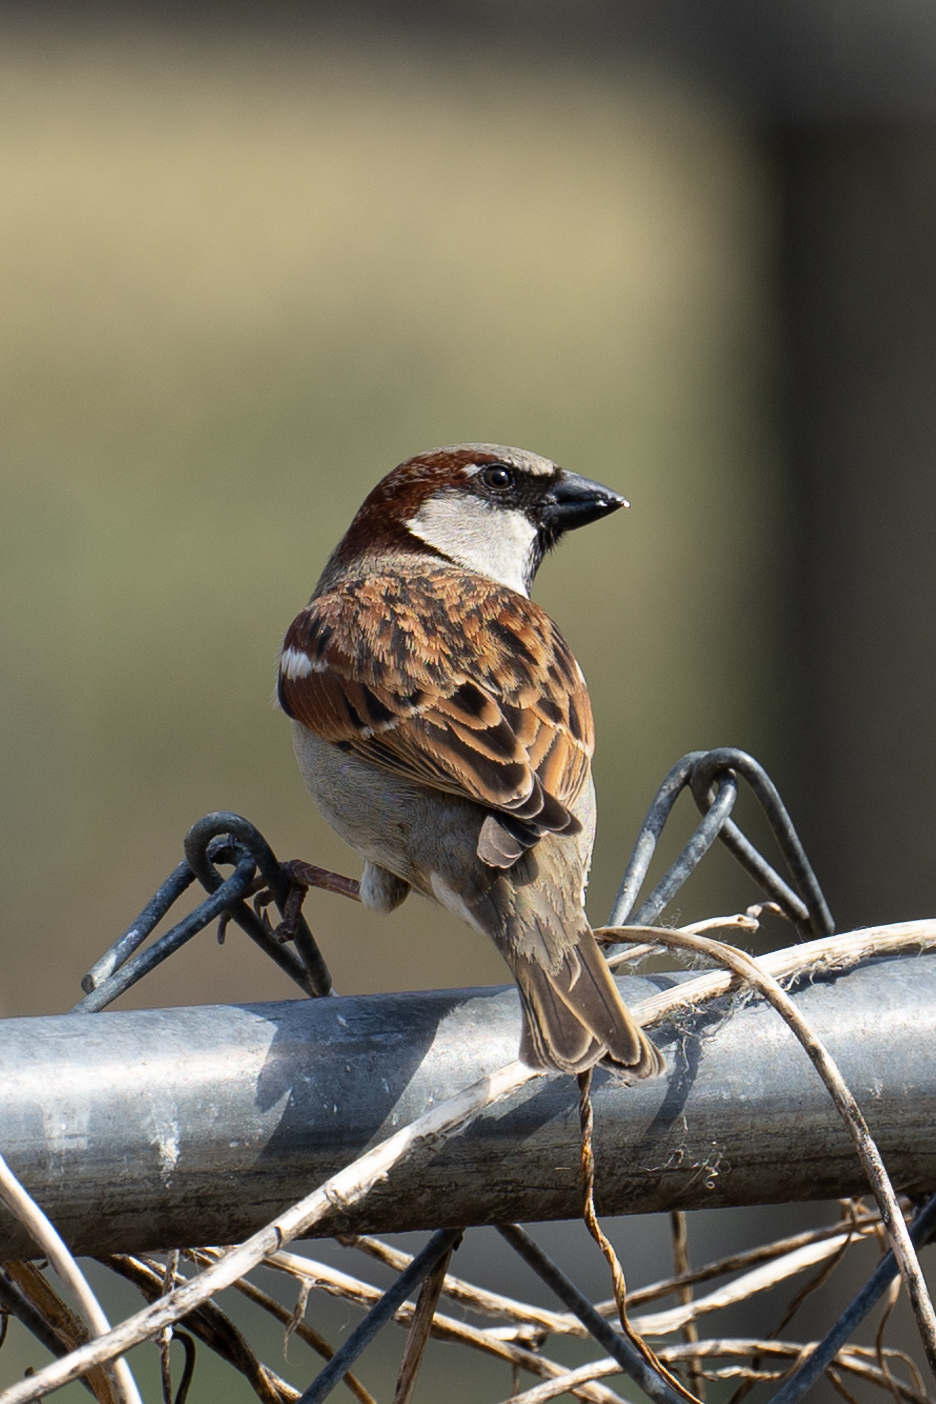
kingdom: Animalia
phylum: Chordata
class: Aves
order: Passeriformes
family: Passeridae
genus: Passer
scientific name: Passer domesticus
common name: House sparrow
